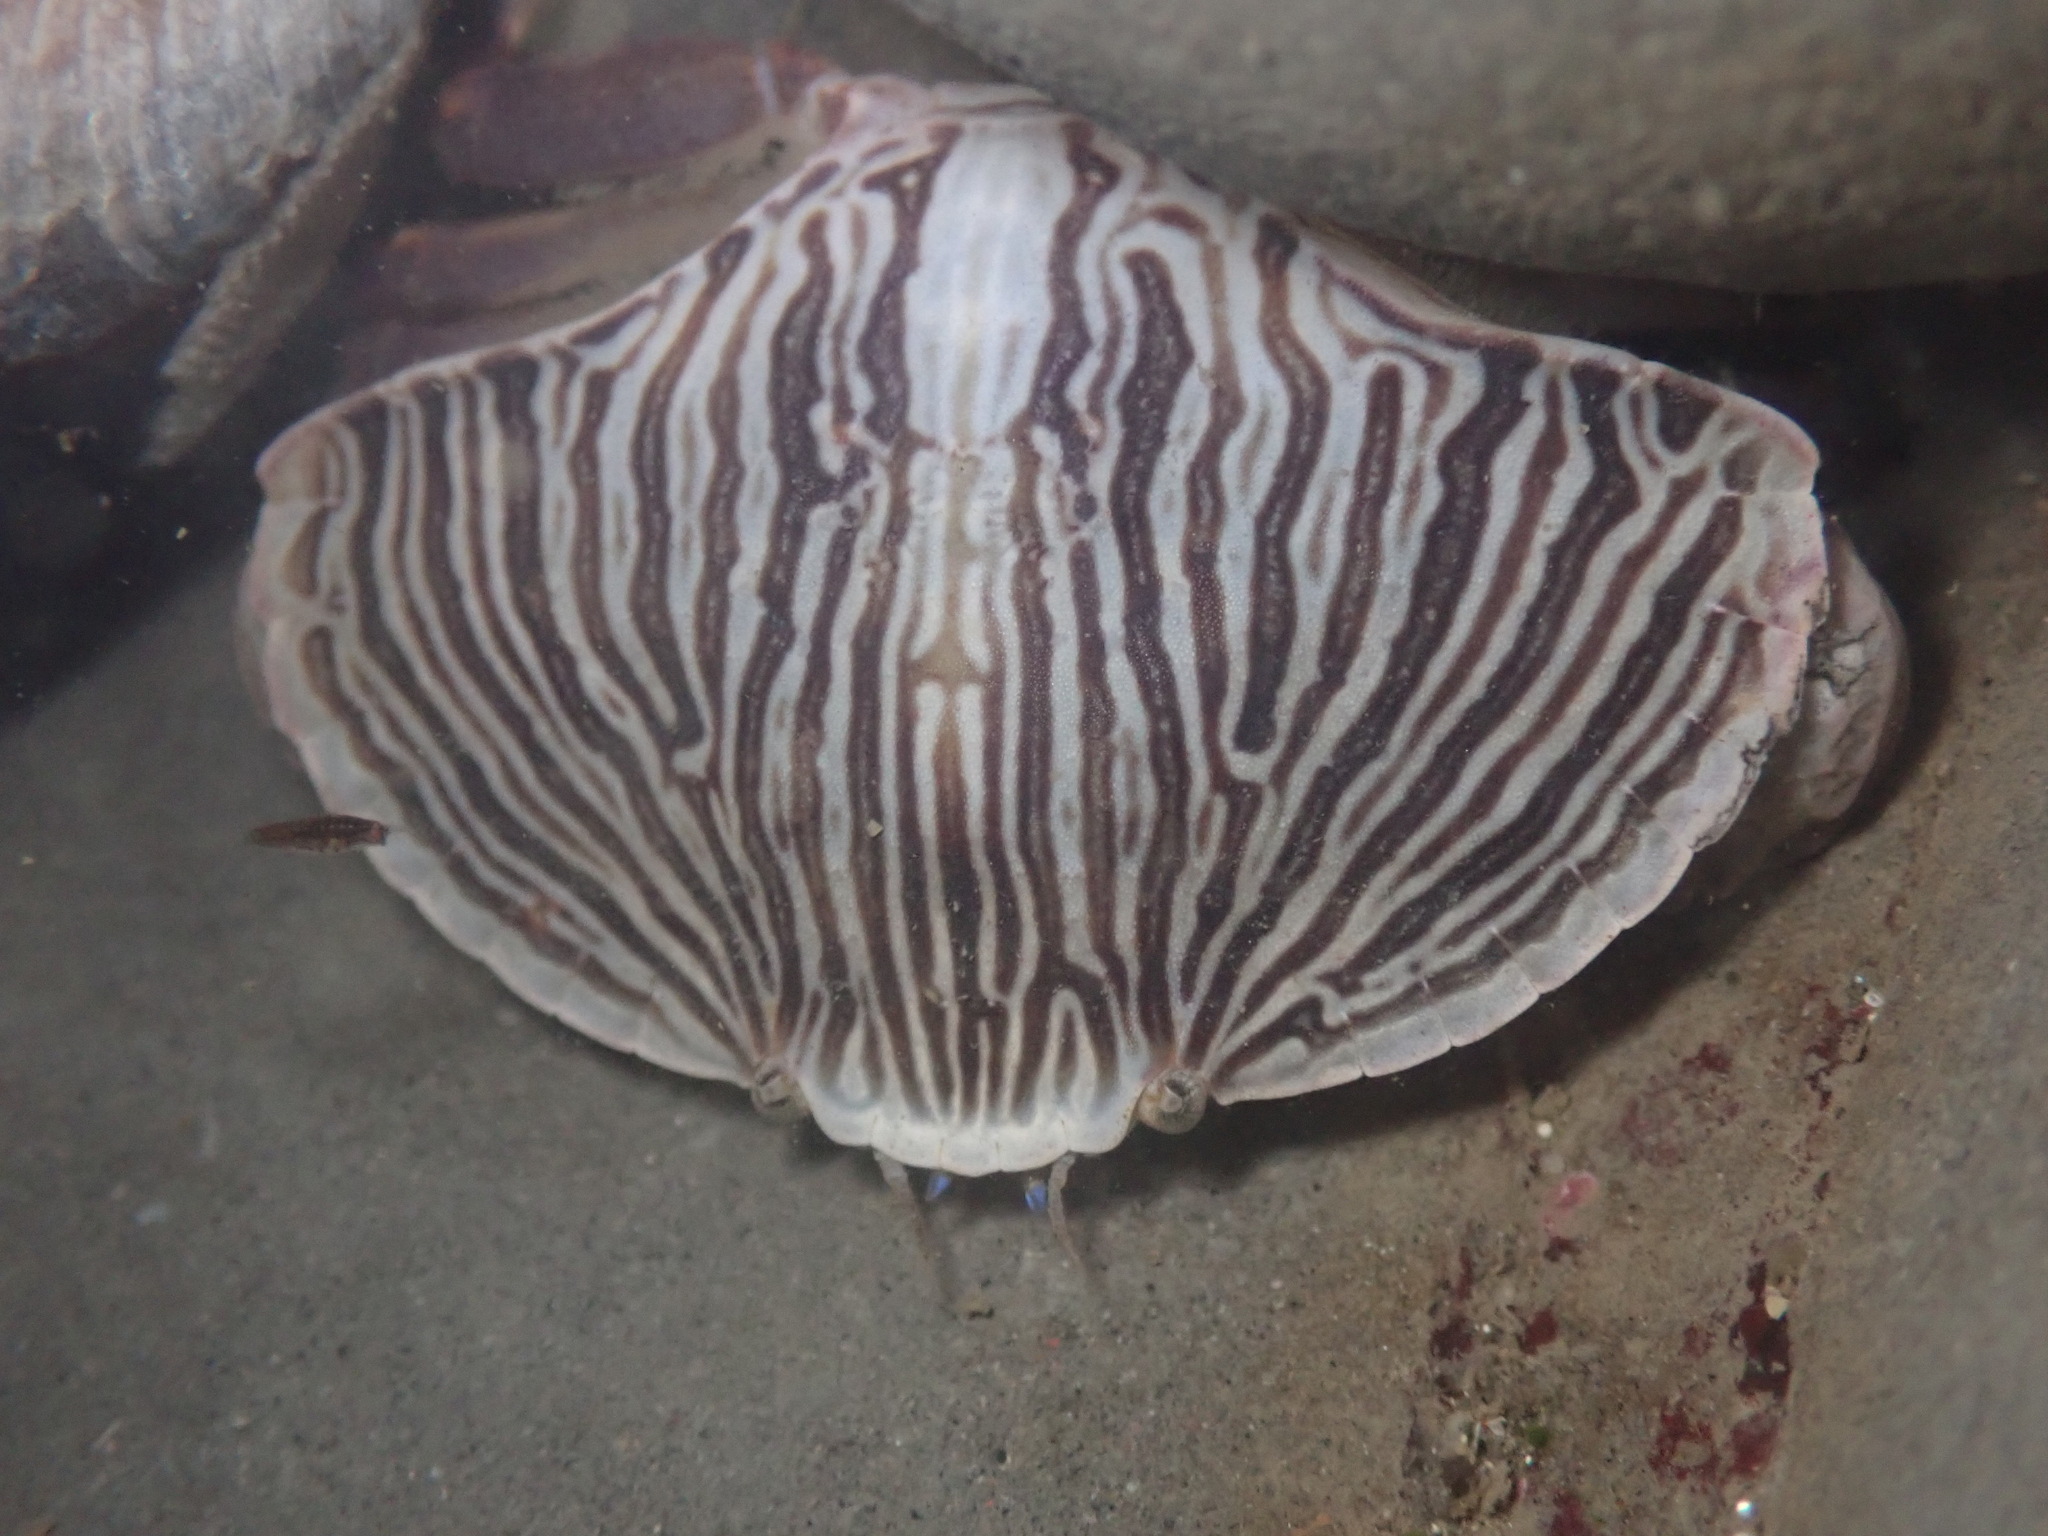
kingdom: Animalia
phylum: Arthropoda
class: Malacostraca
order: Decapoda
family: Cancridae
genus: Cancer
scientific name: Cancer productus
